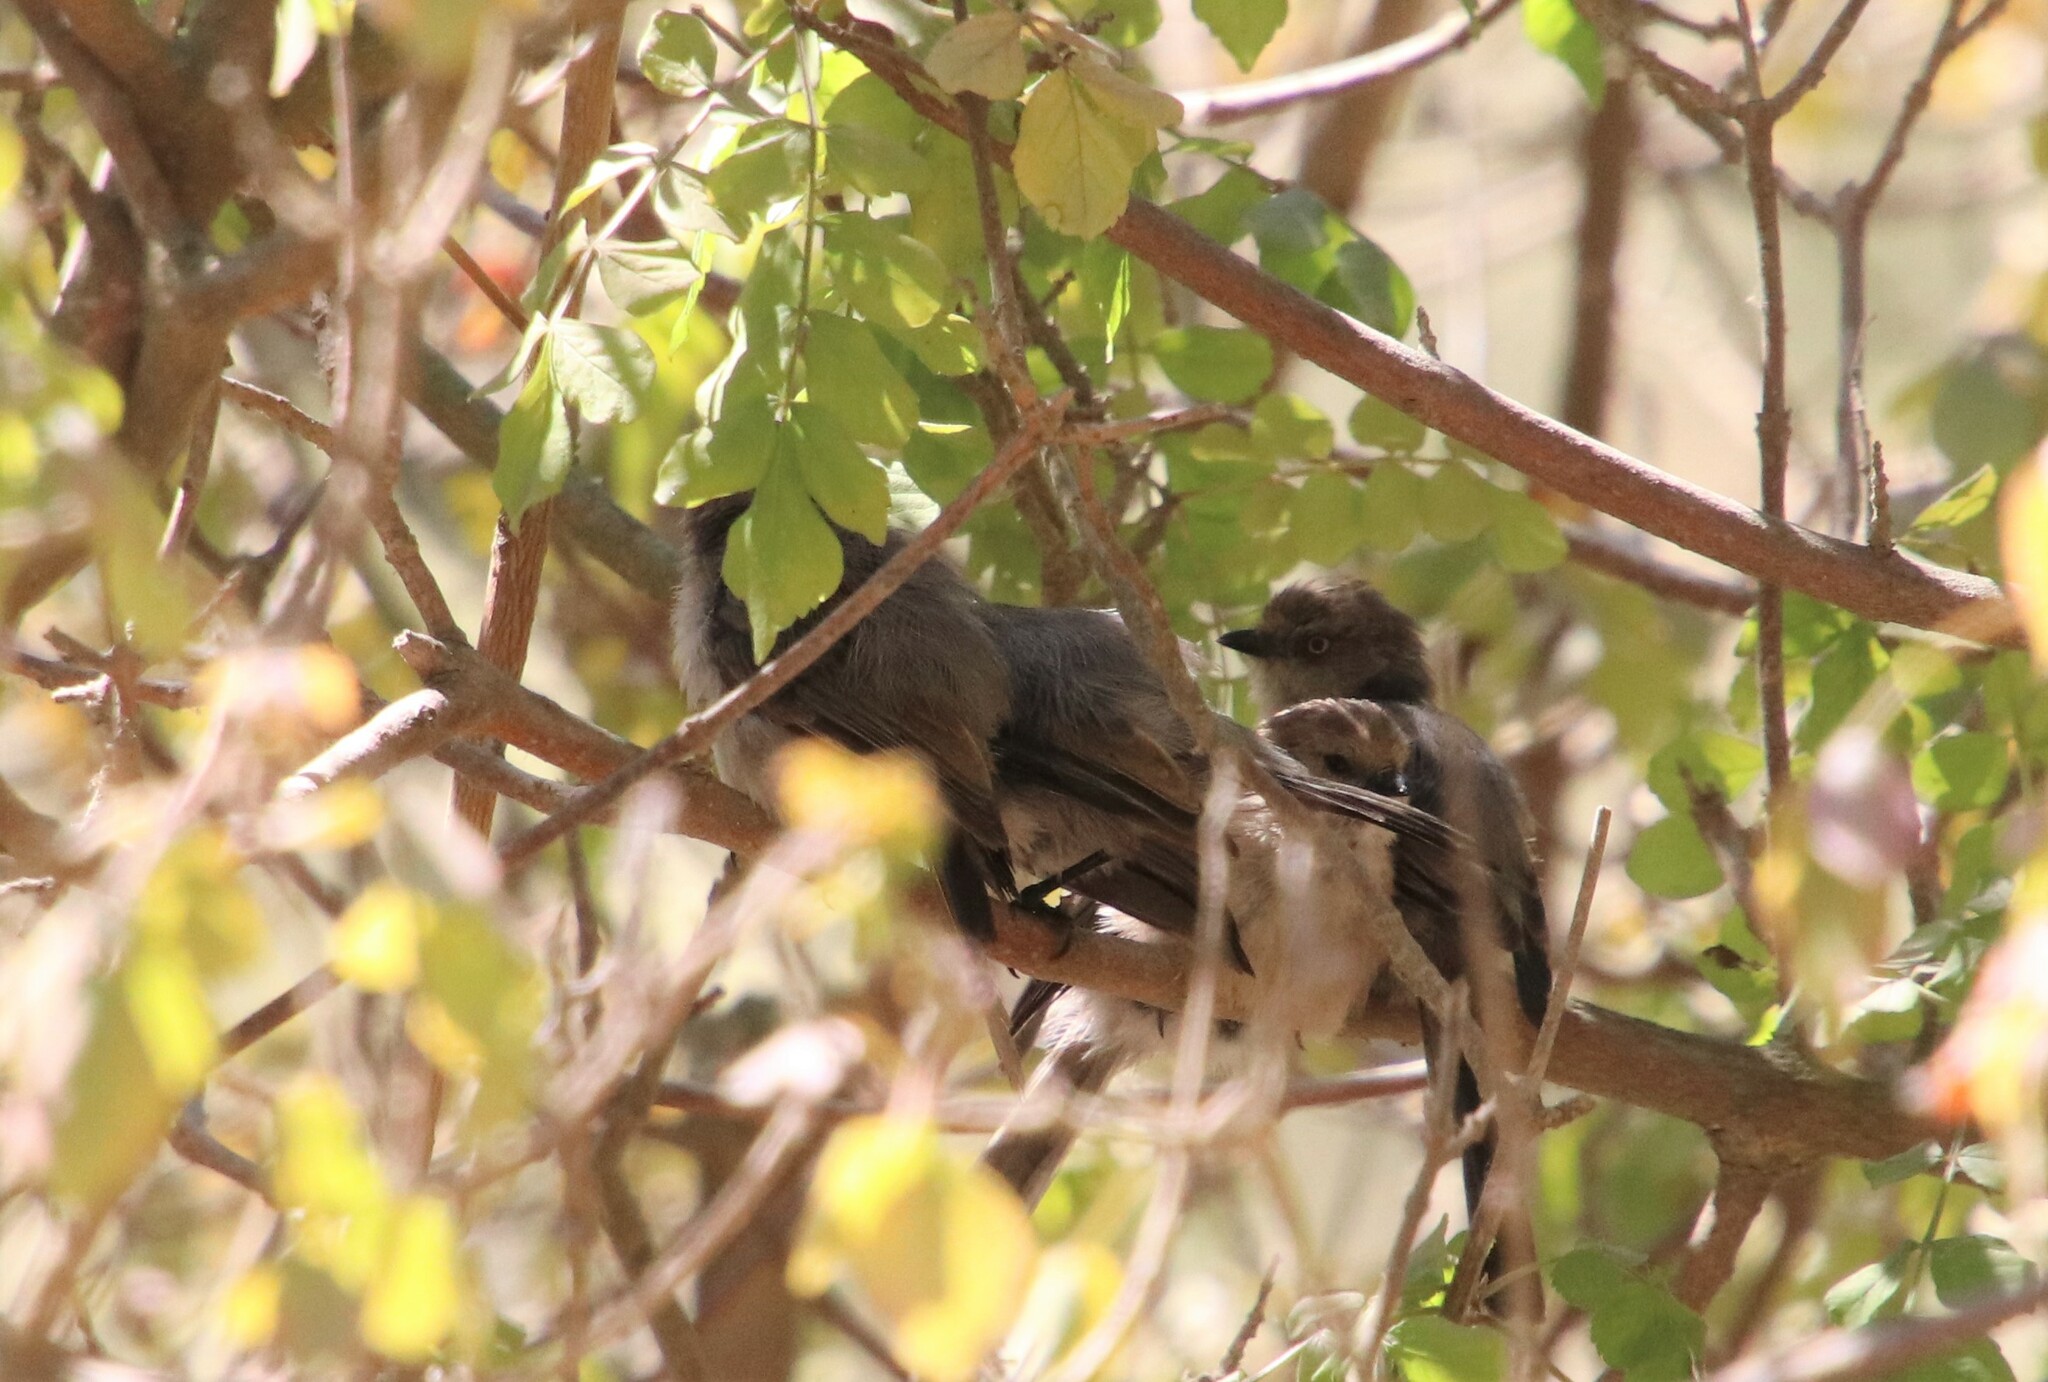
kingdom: Animalia
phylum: Chordata
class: Aves
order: Passeriformes
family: Aegithalidae
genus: Psaltriparus
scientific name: Psaltriparus minimus
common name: American bushtit
